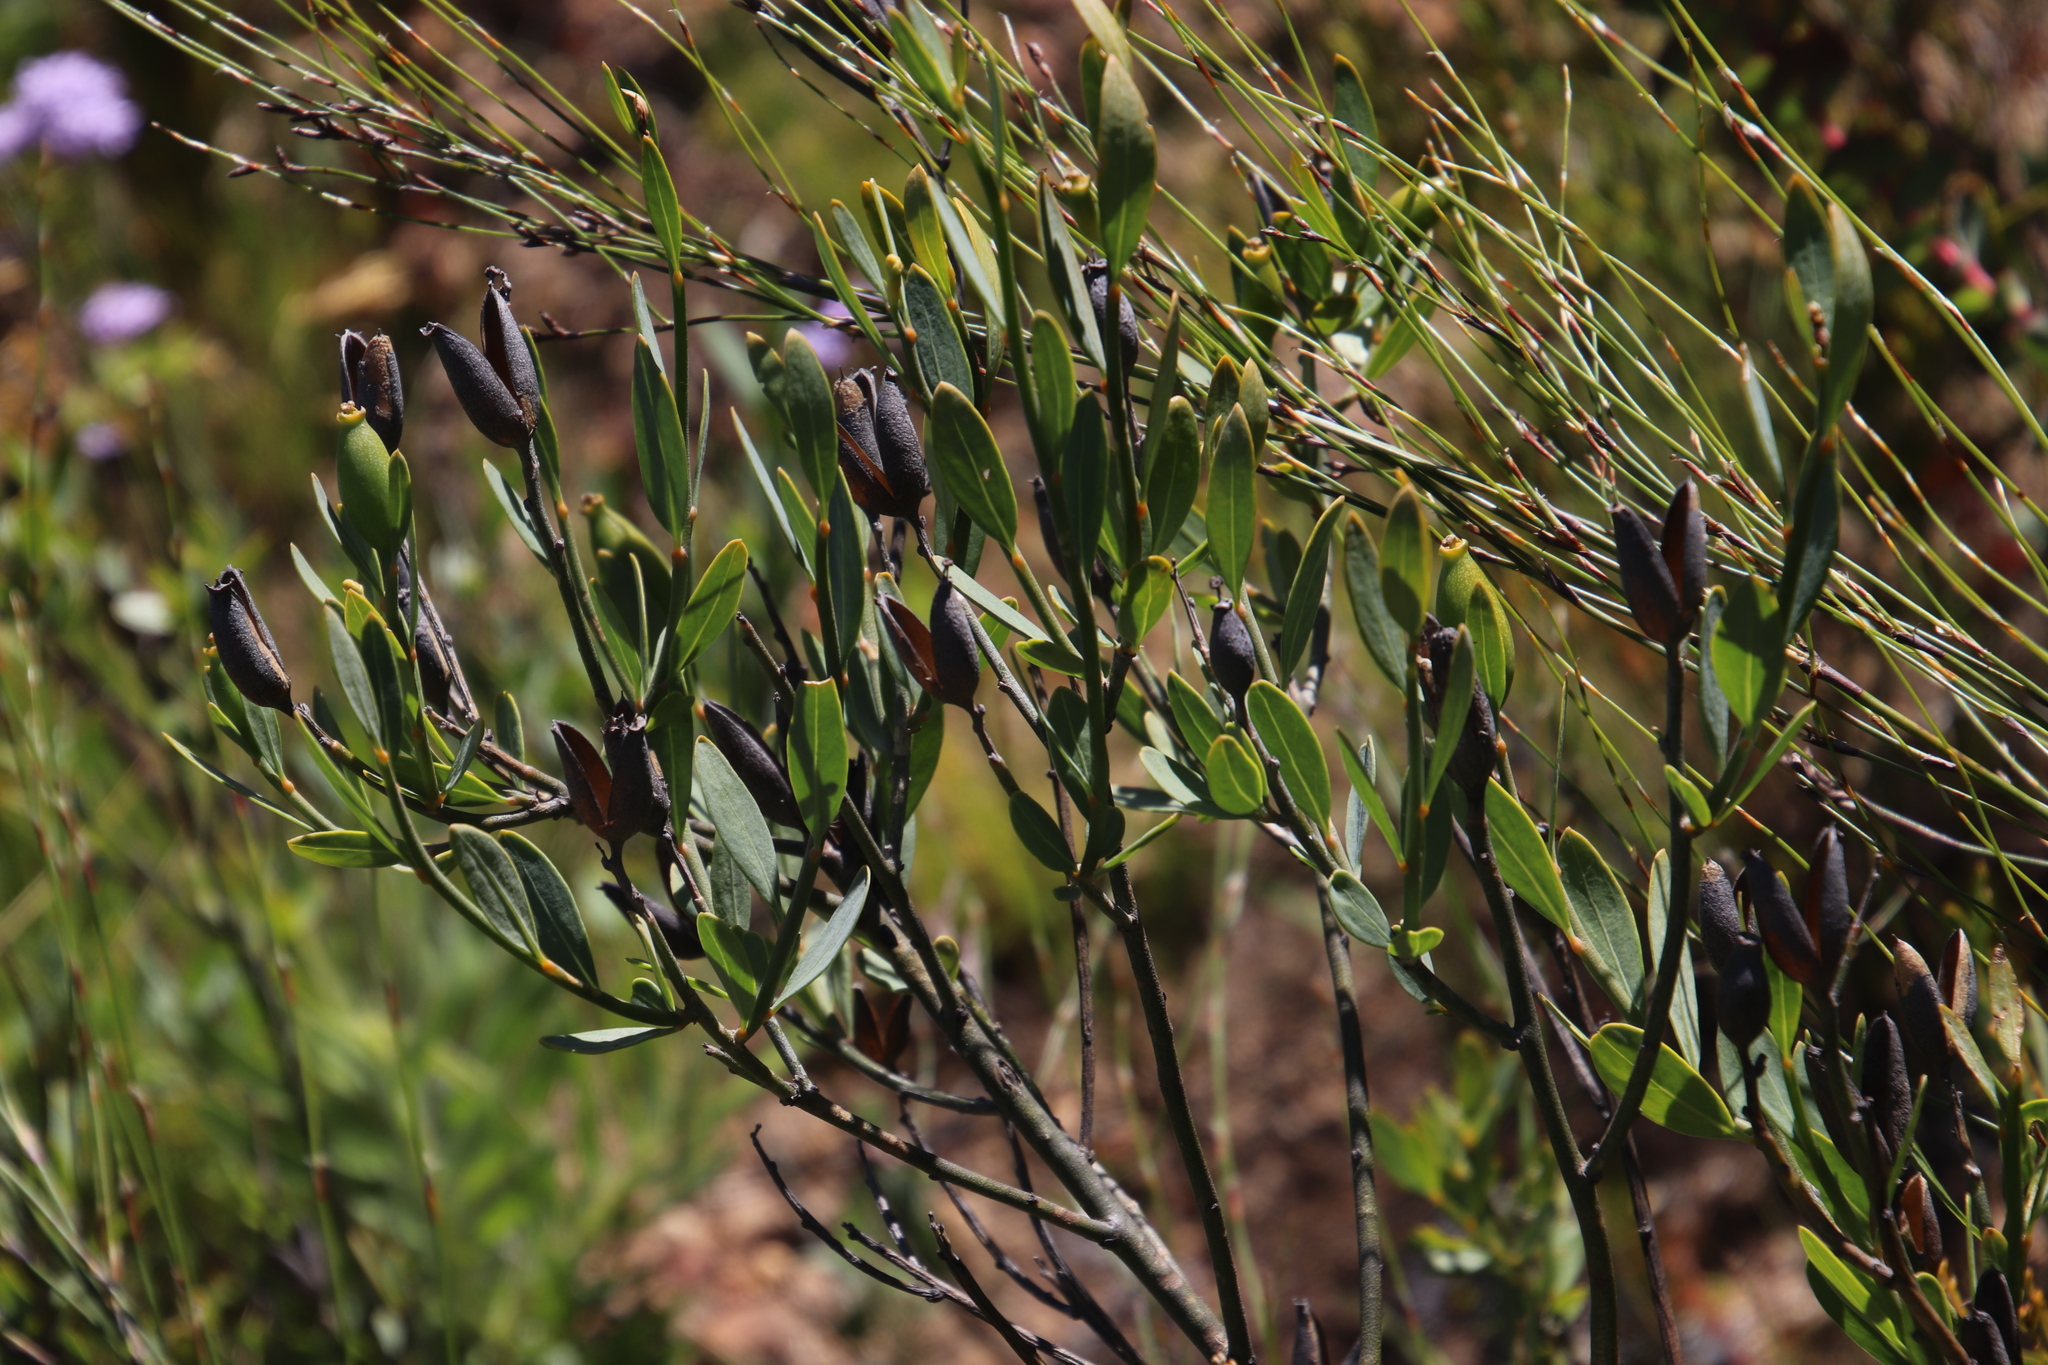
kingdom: Plantae
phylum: Tracheophyta
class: Magnoliopsida
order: Solanales
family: Montiniaceae
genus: Montinia
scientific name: Montinia caryophyllacea
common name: Wild clove-bush
